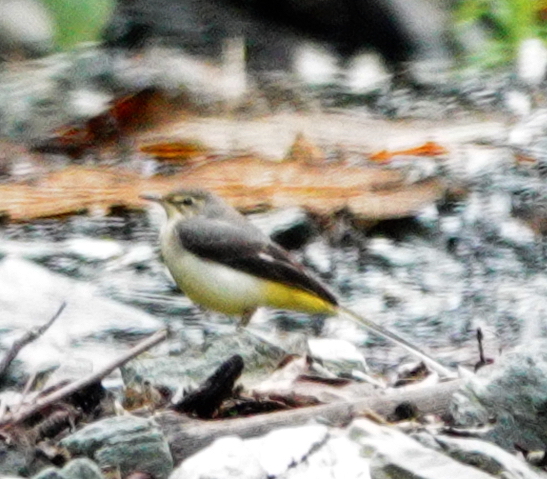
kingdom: Animalia
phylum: Chordata
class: Aves
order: Passeriformes
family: Motacillidae
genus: Motacilla
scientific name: Motacilla cinerea
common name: Grey wagtail
